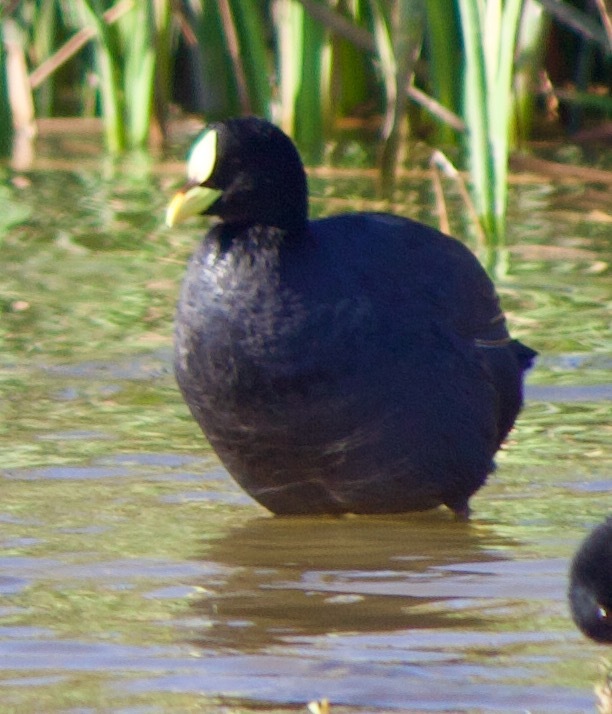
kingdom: Animalia
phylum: Chordata
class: Aves
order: Gruiformes
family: Rallidae
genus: Fulica
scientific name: Fulica armillata
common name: Red-gartered coot
